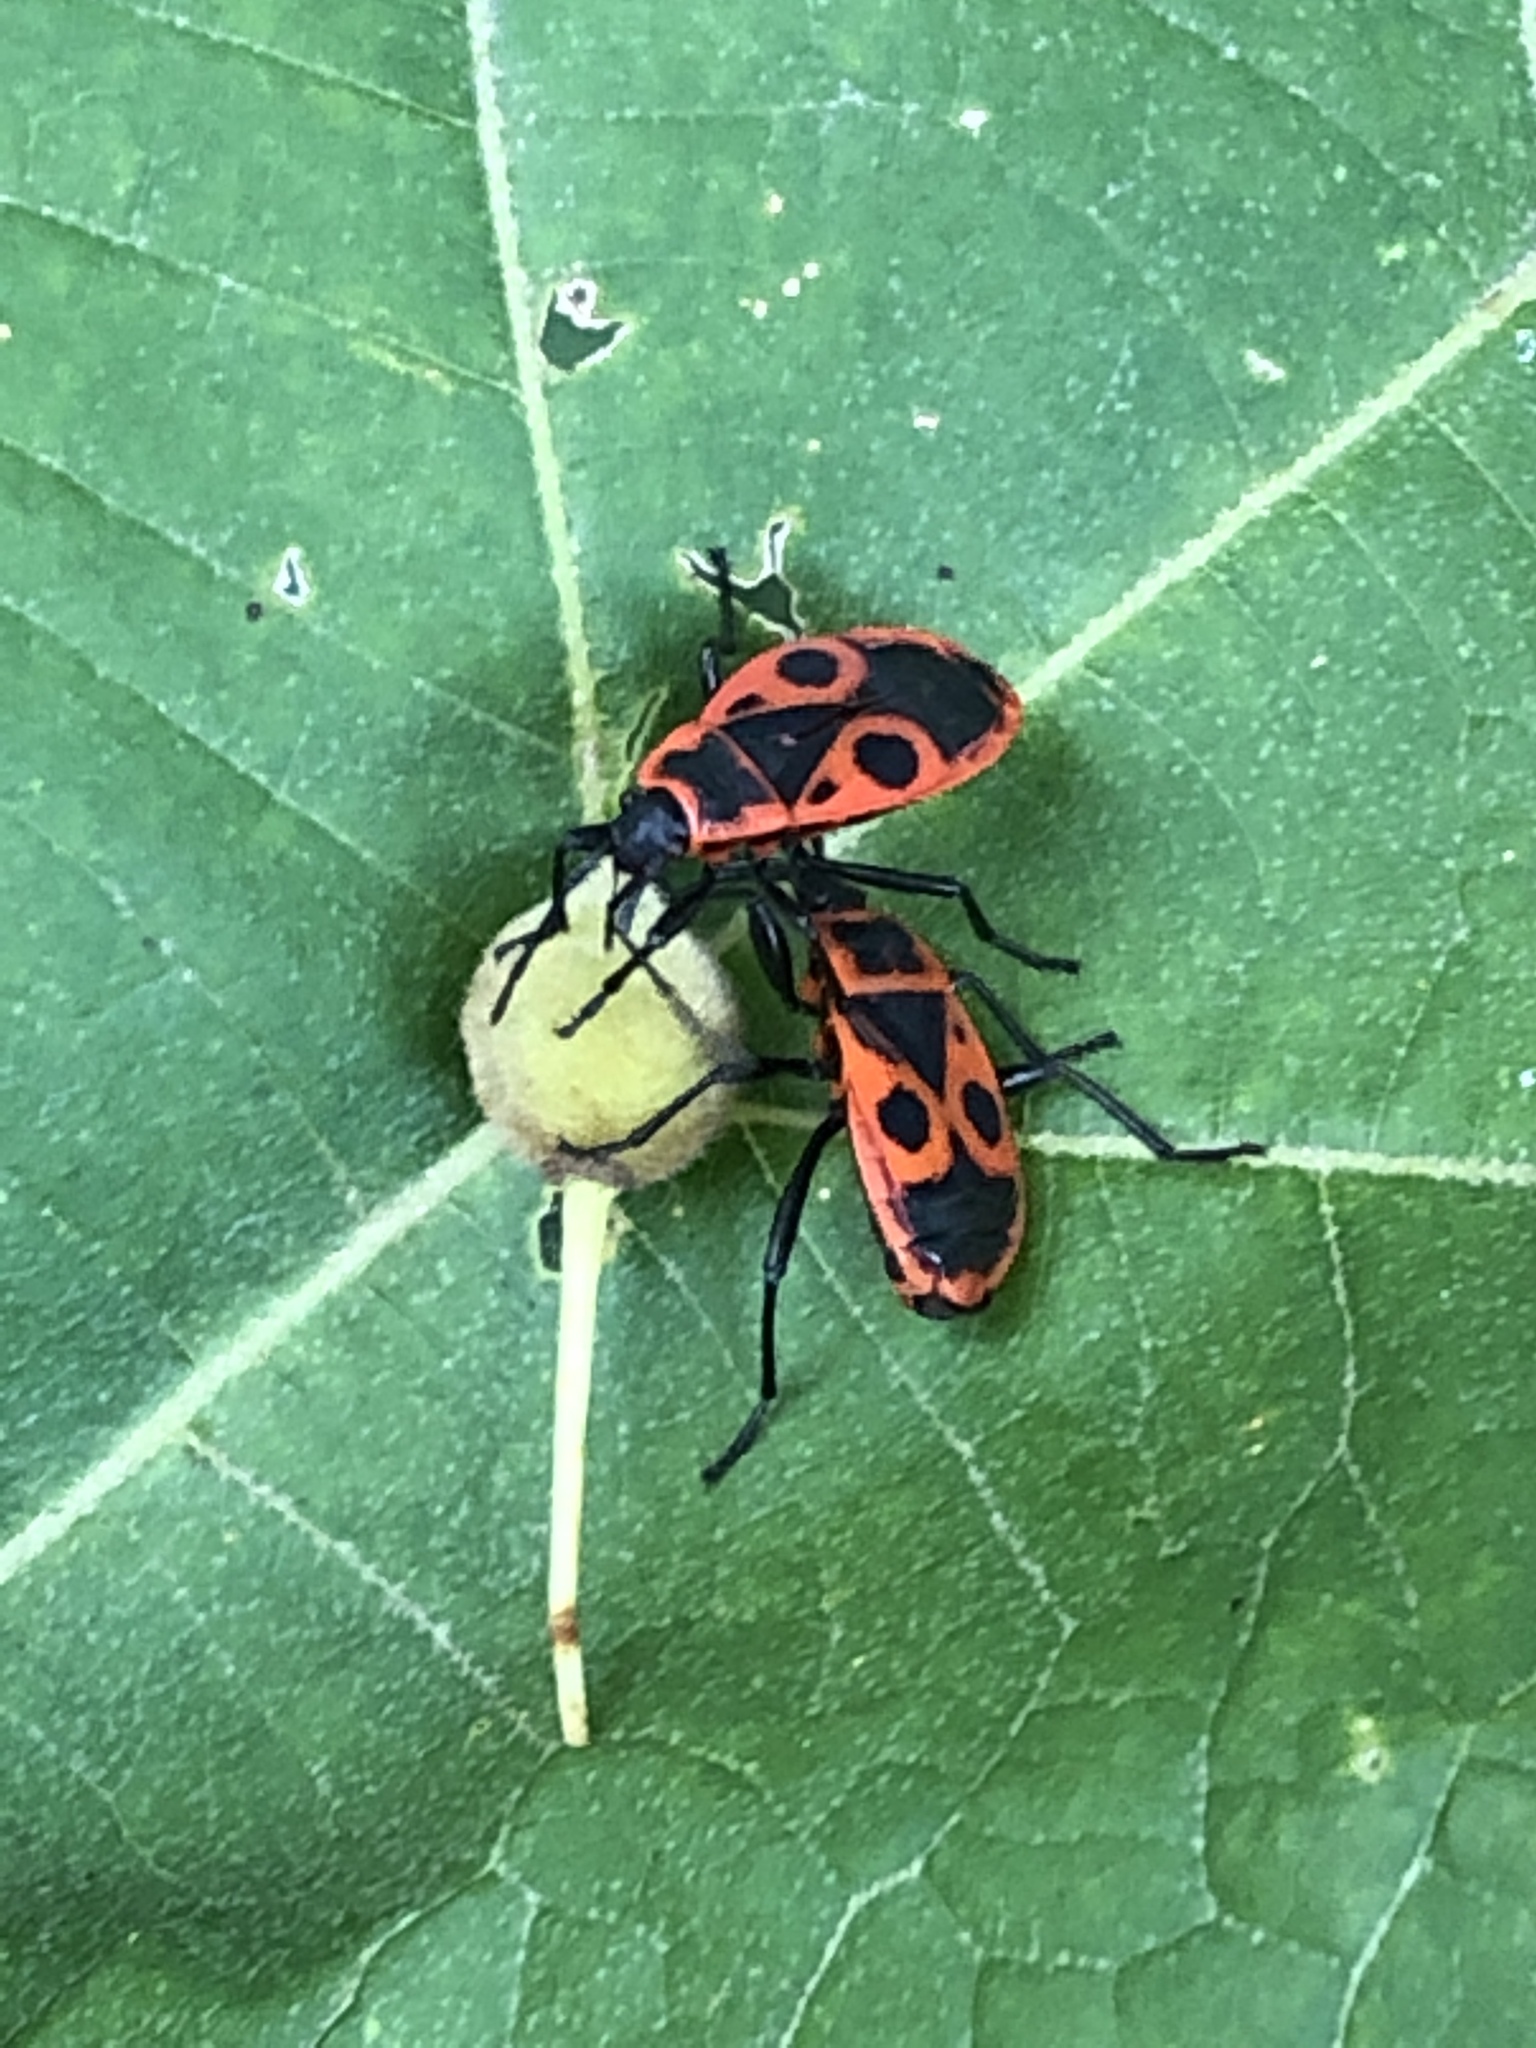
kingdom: Animalia
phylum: Arthropoda
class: Insecta
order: Hemiptera
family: Pyrrhocoridae
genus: Pyrrhocoris
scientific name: Pyrrhocoris apterus
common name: Firebug
